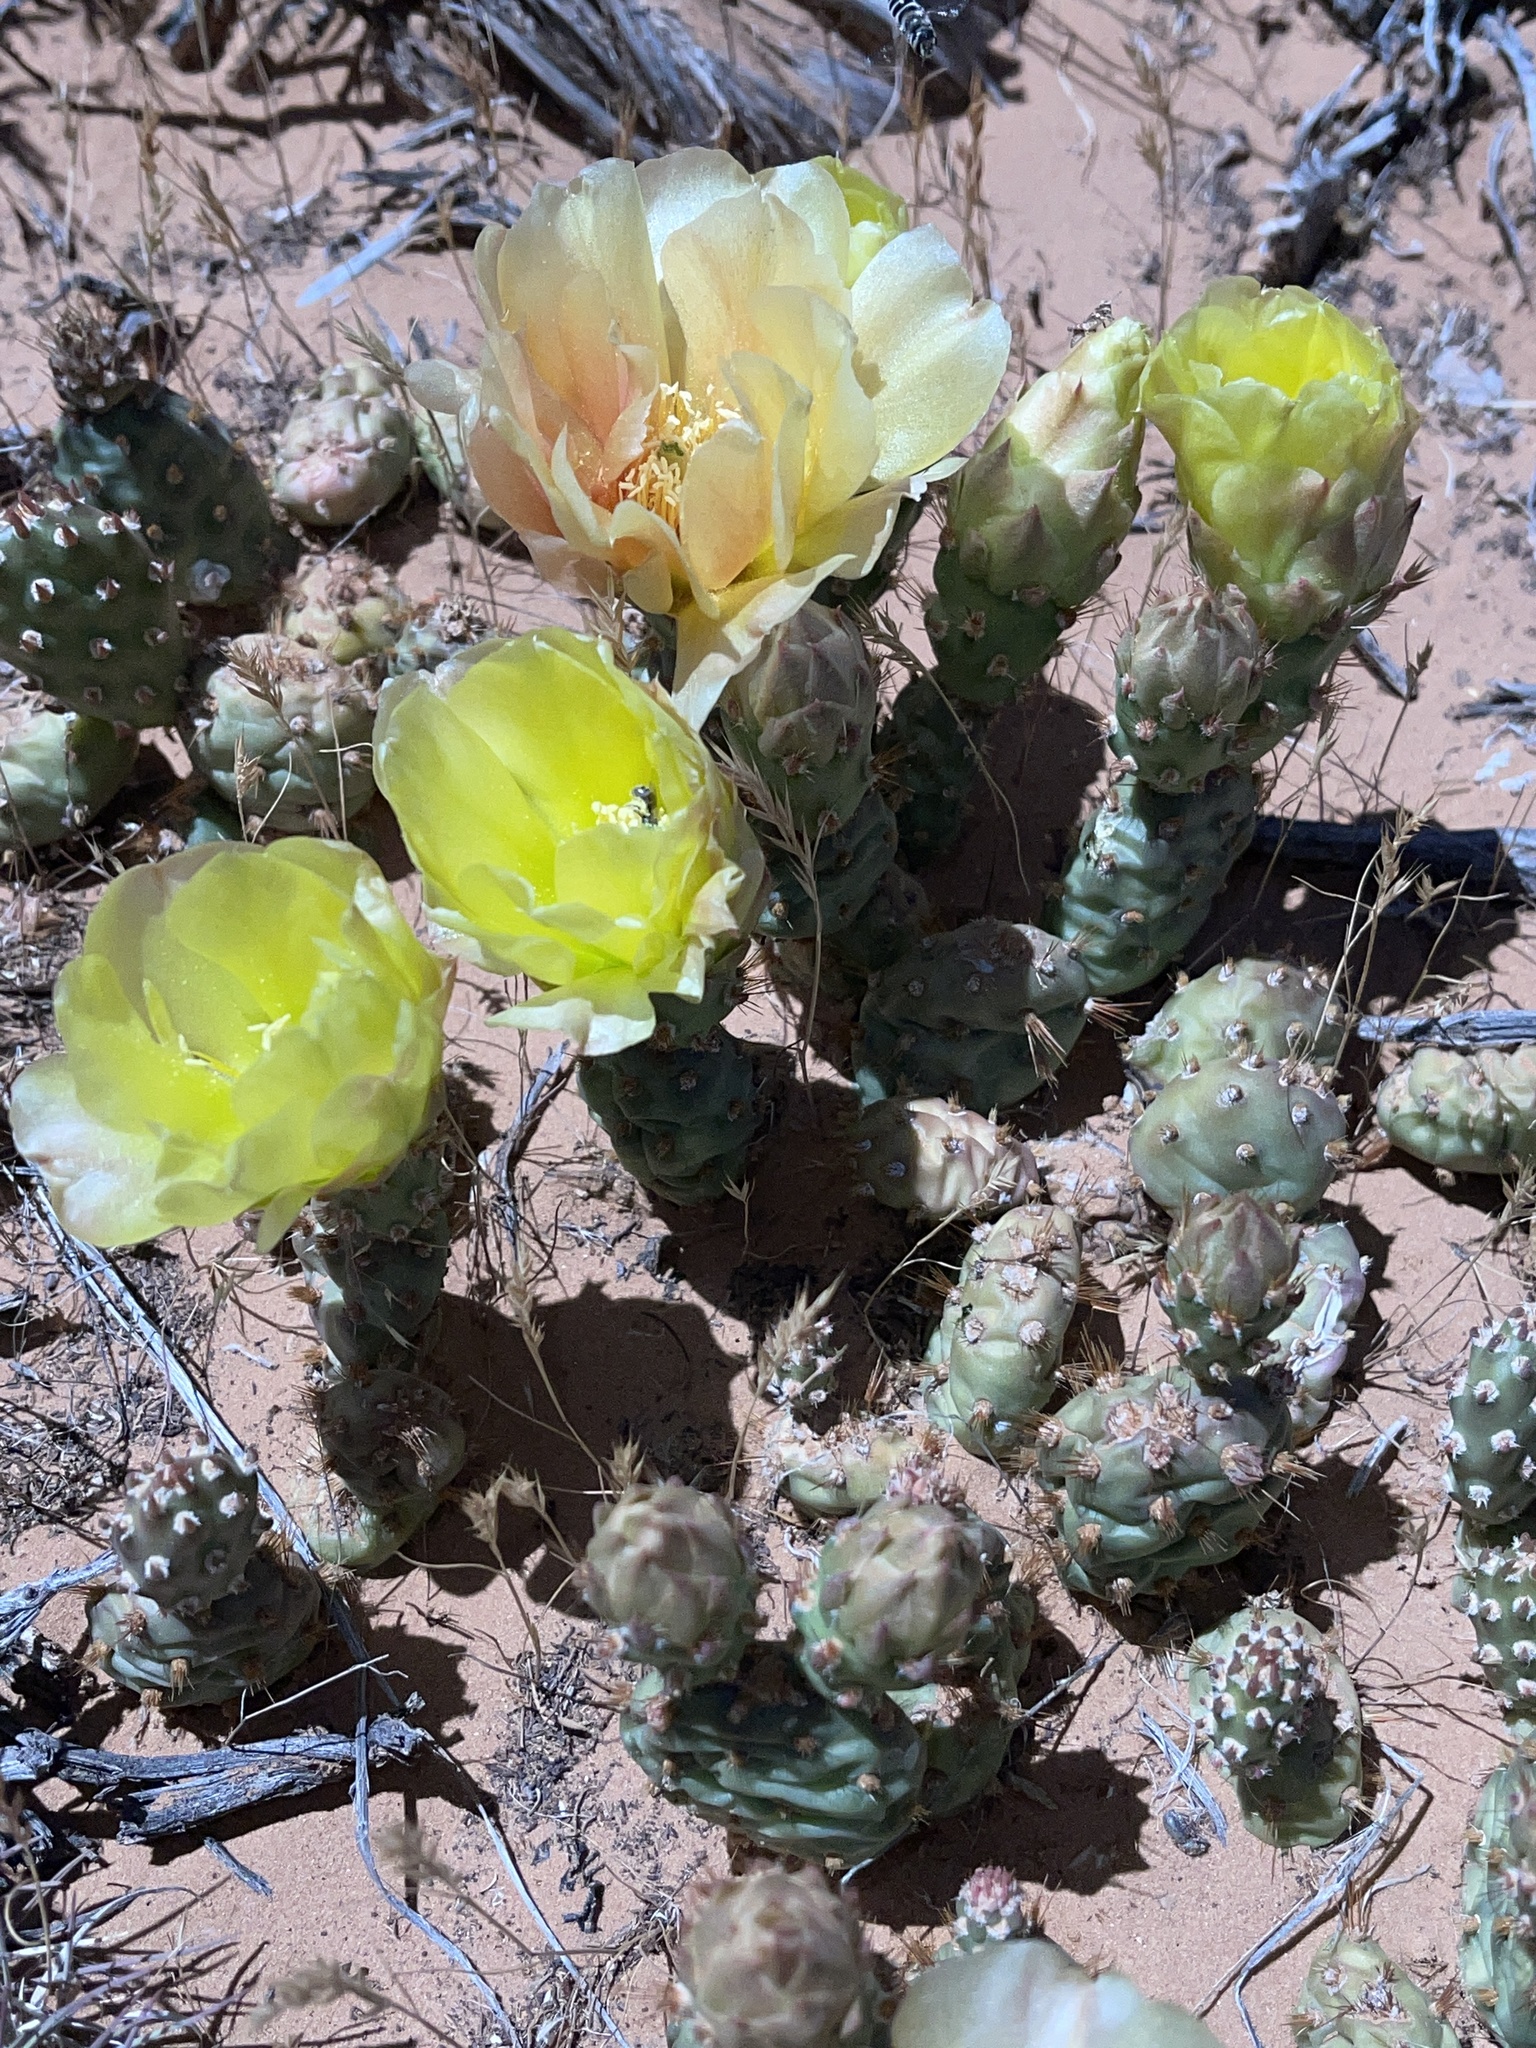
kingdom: Plantae
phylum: Tracheophyta
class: Magnoliopsida
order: Caryophyllales
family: Cactaceae
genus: Opuntia
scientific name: Opuntia fragilis
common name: Brittle cactus
